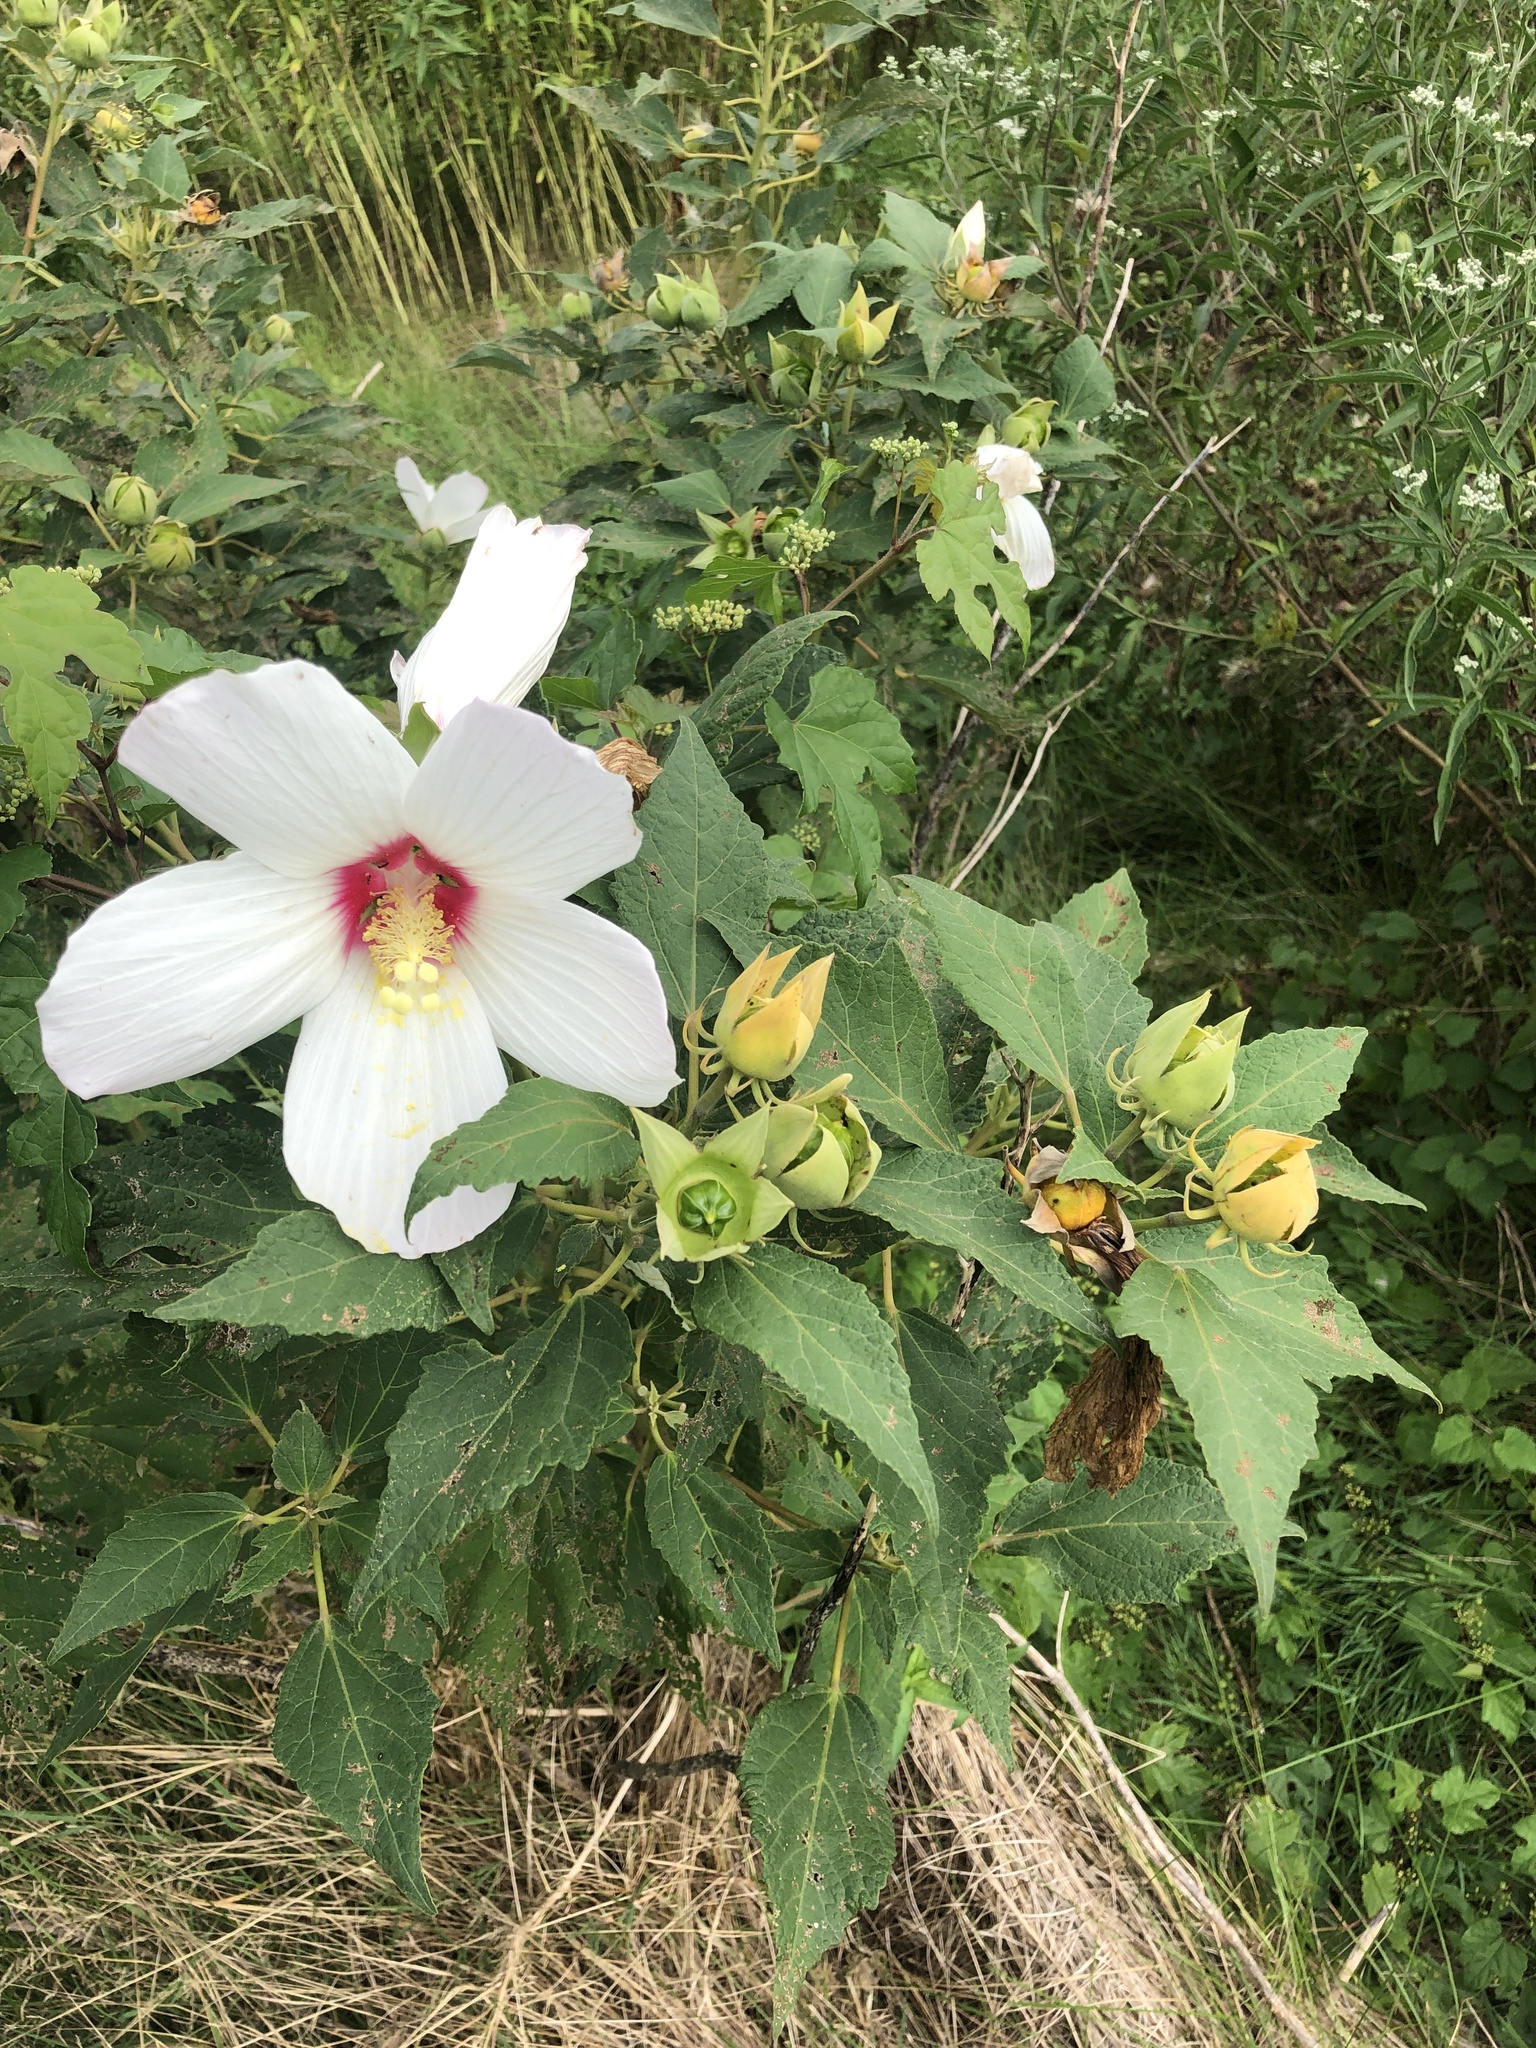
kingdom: Plantae
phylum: Tracheophyta
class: Magnoliopsida
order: Malvales
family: Malvaceae
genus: Hibiscus
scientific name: Hibiscus moscheutos
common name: Common rose-mallow
